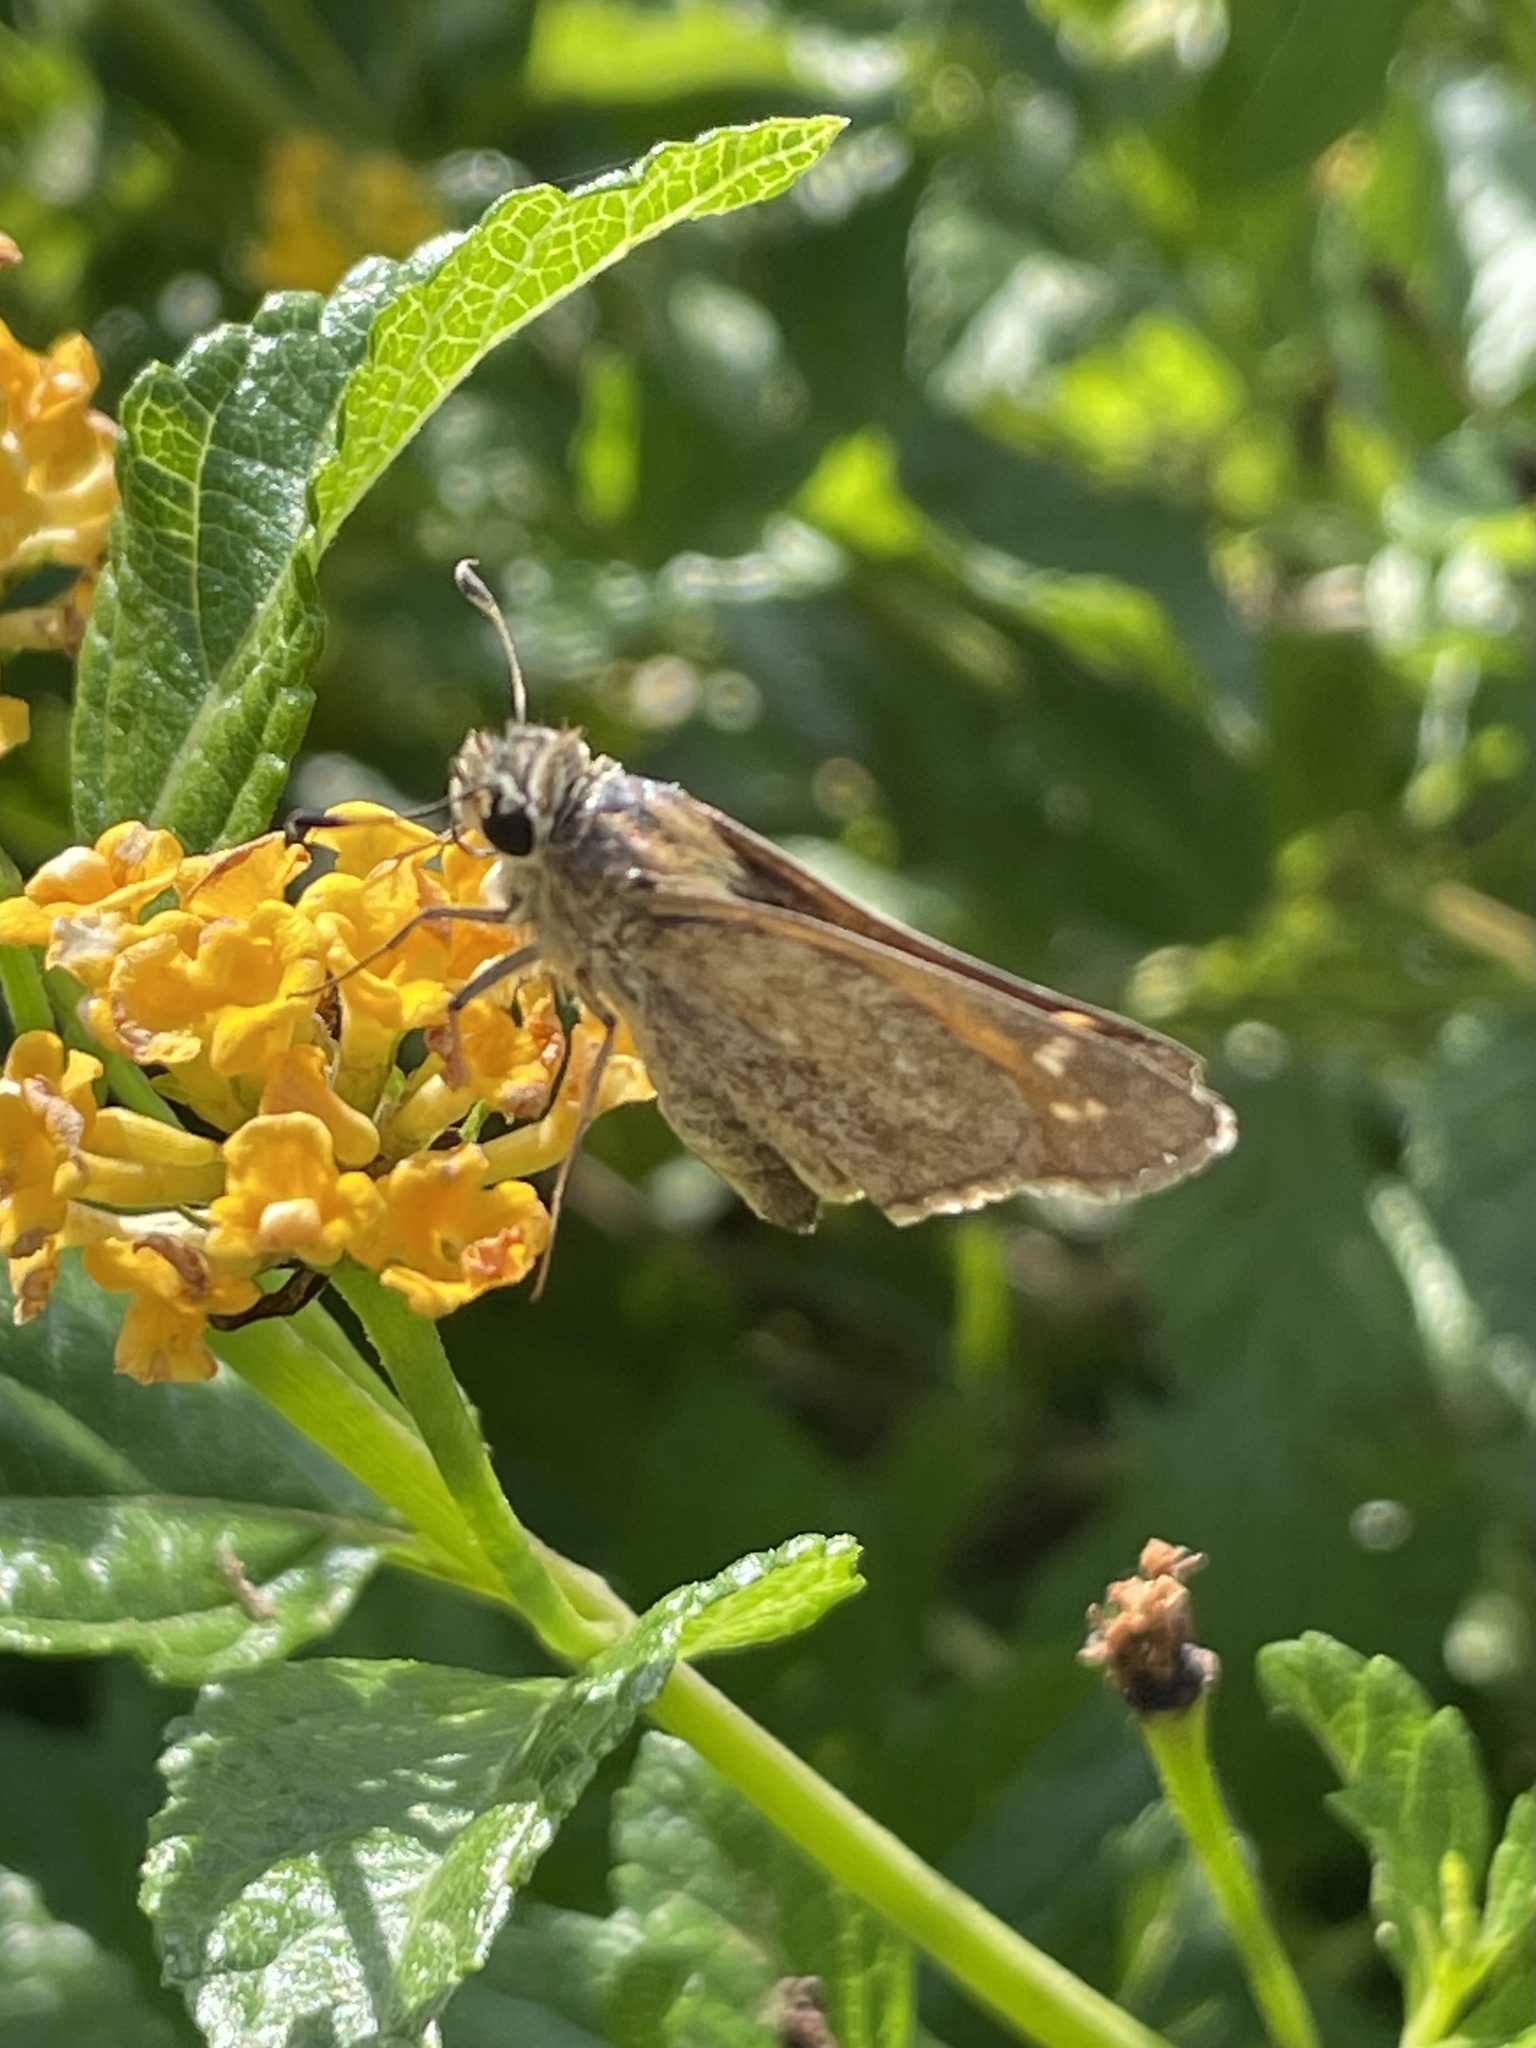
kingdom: Animalia
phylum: Arthropoda
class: Insecta
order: Lepidoptera
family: Hesperiidae
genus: Atalopedes
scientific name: Atalopedes
